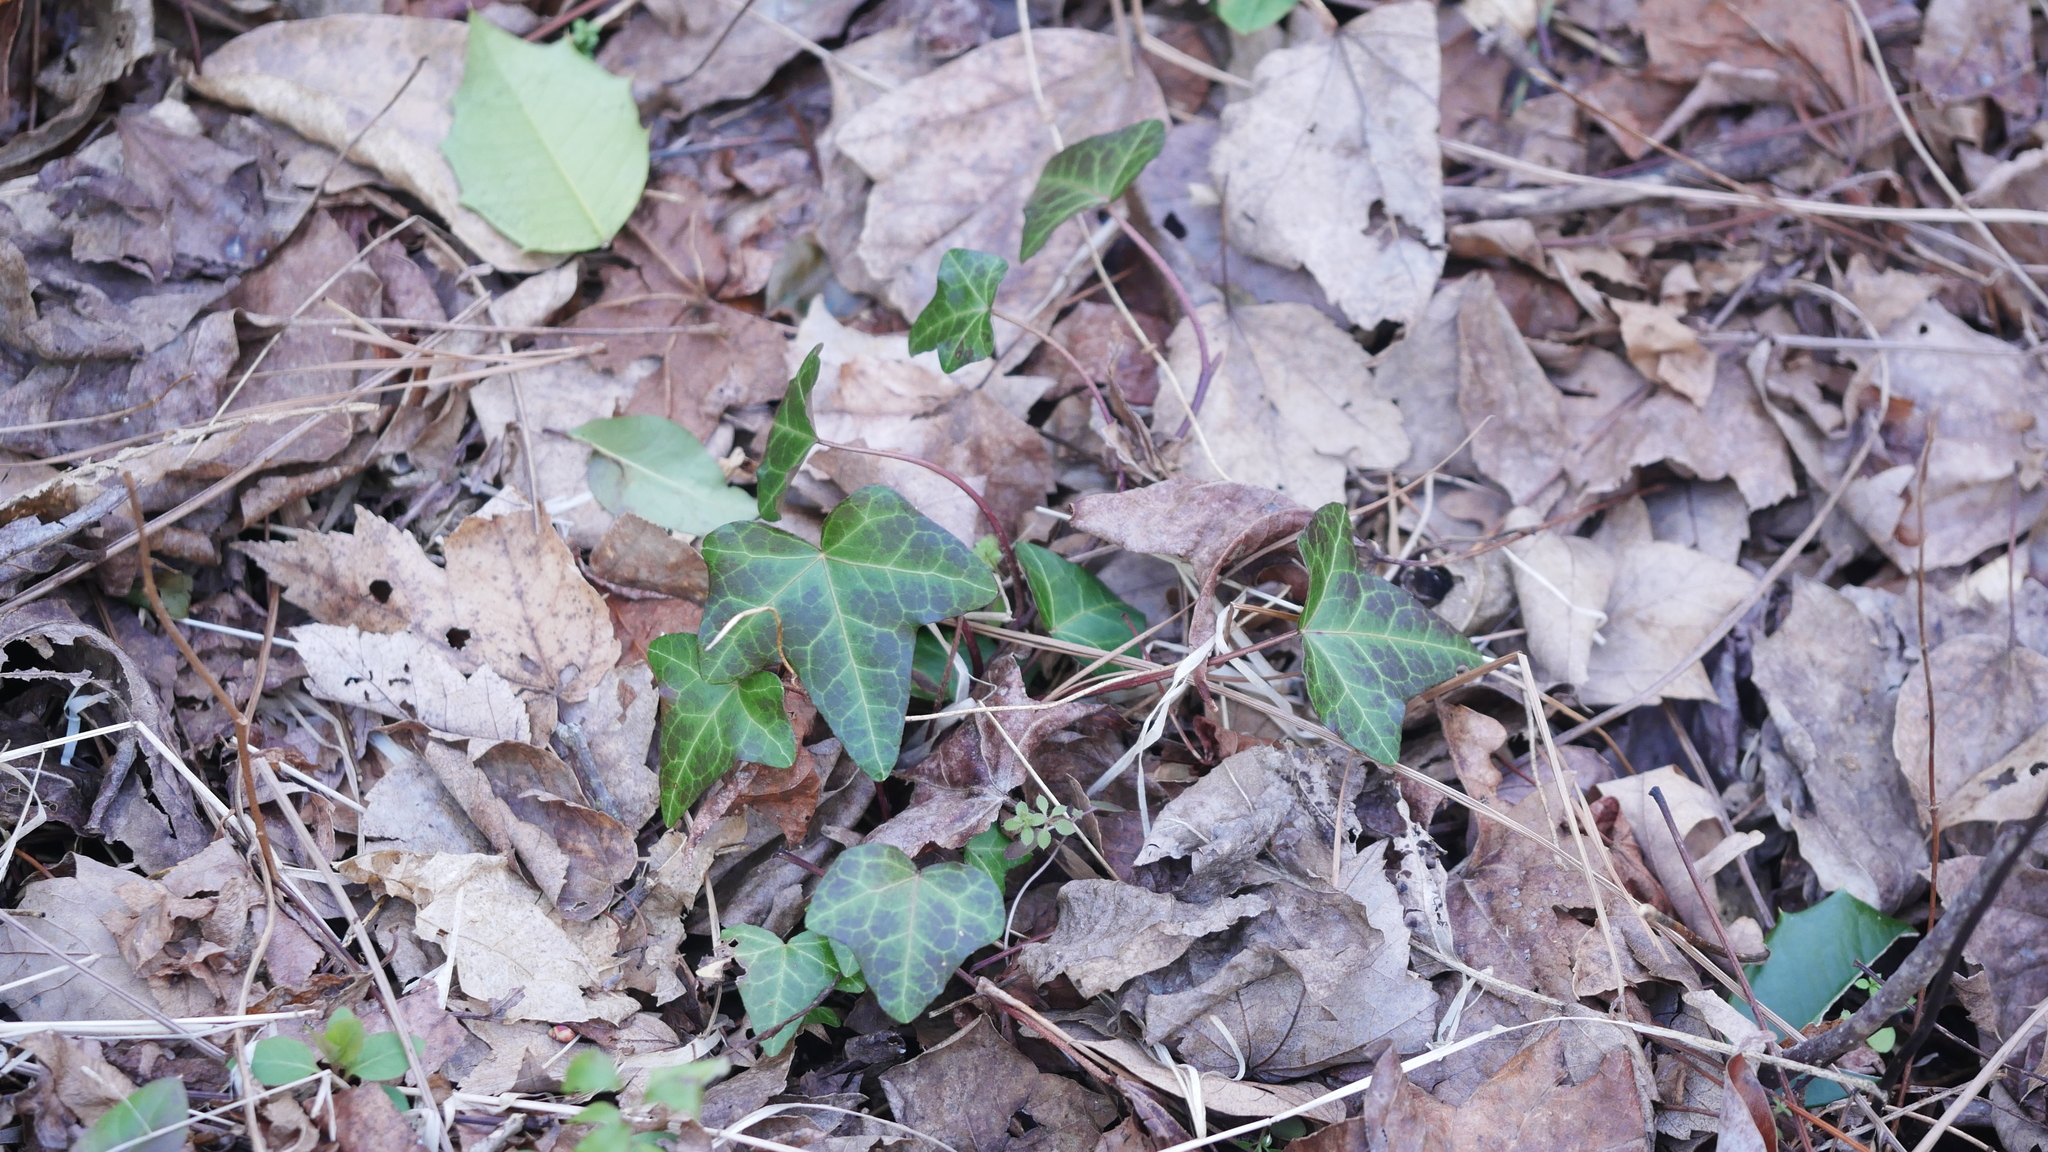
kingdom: Plantae
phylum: Tracheophyta
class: Magnoliopsida
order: Apiales
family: Araliaceae
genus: Hedera
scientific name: Hedera helix
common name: Ivy
